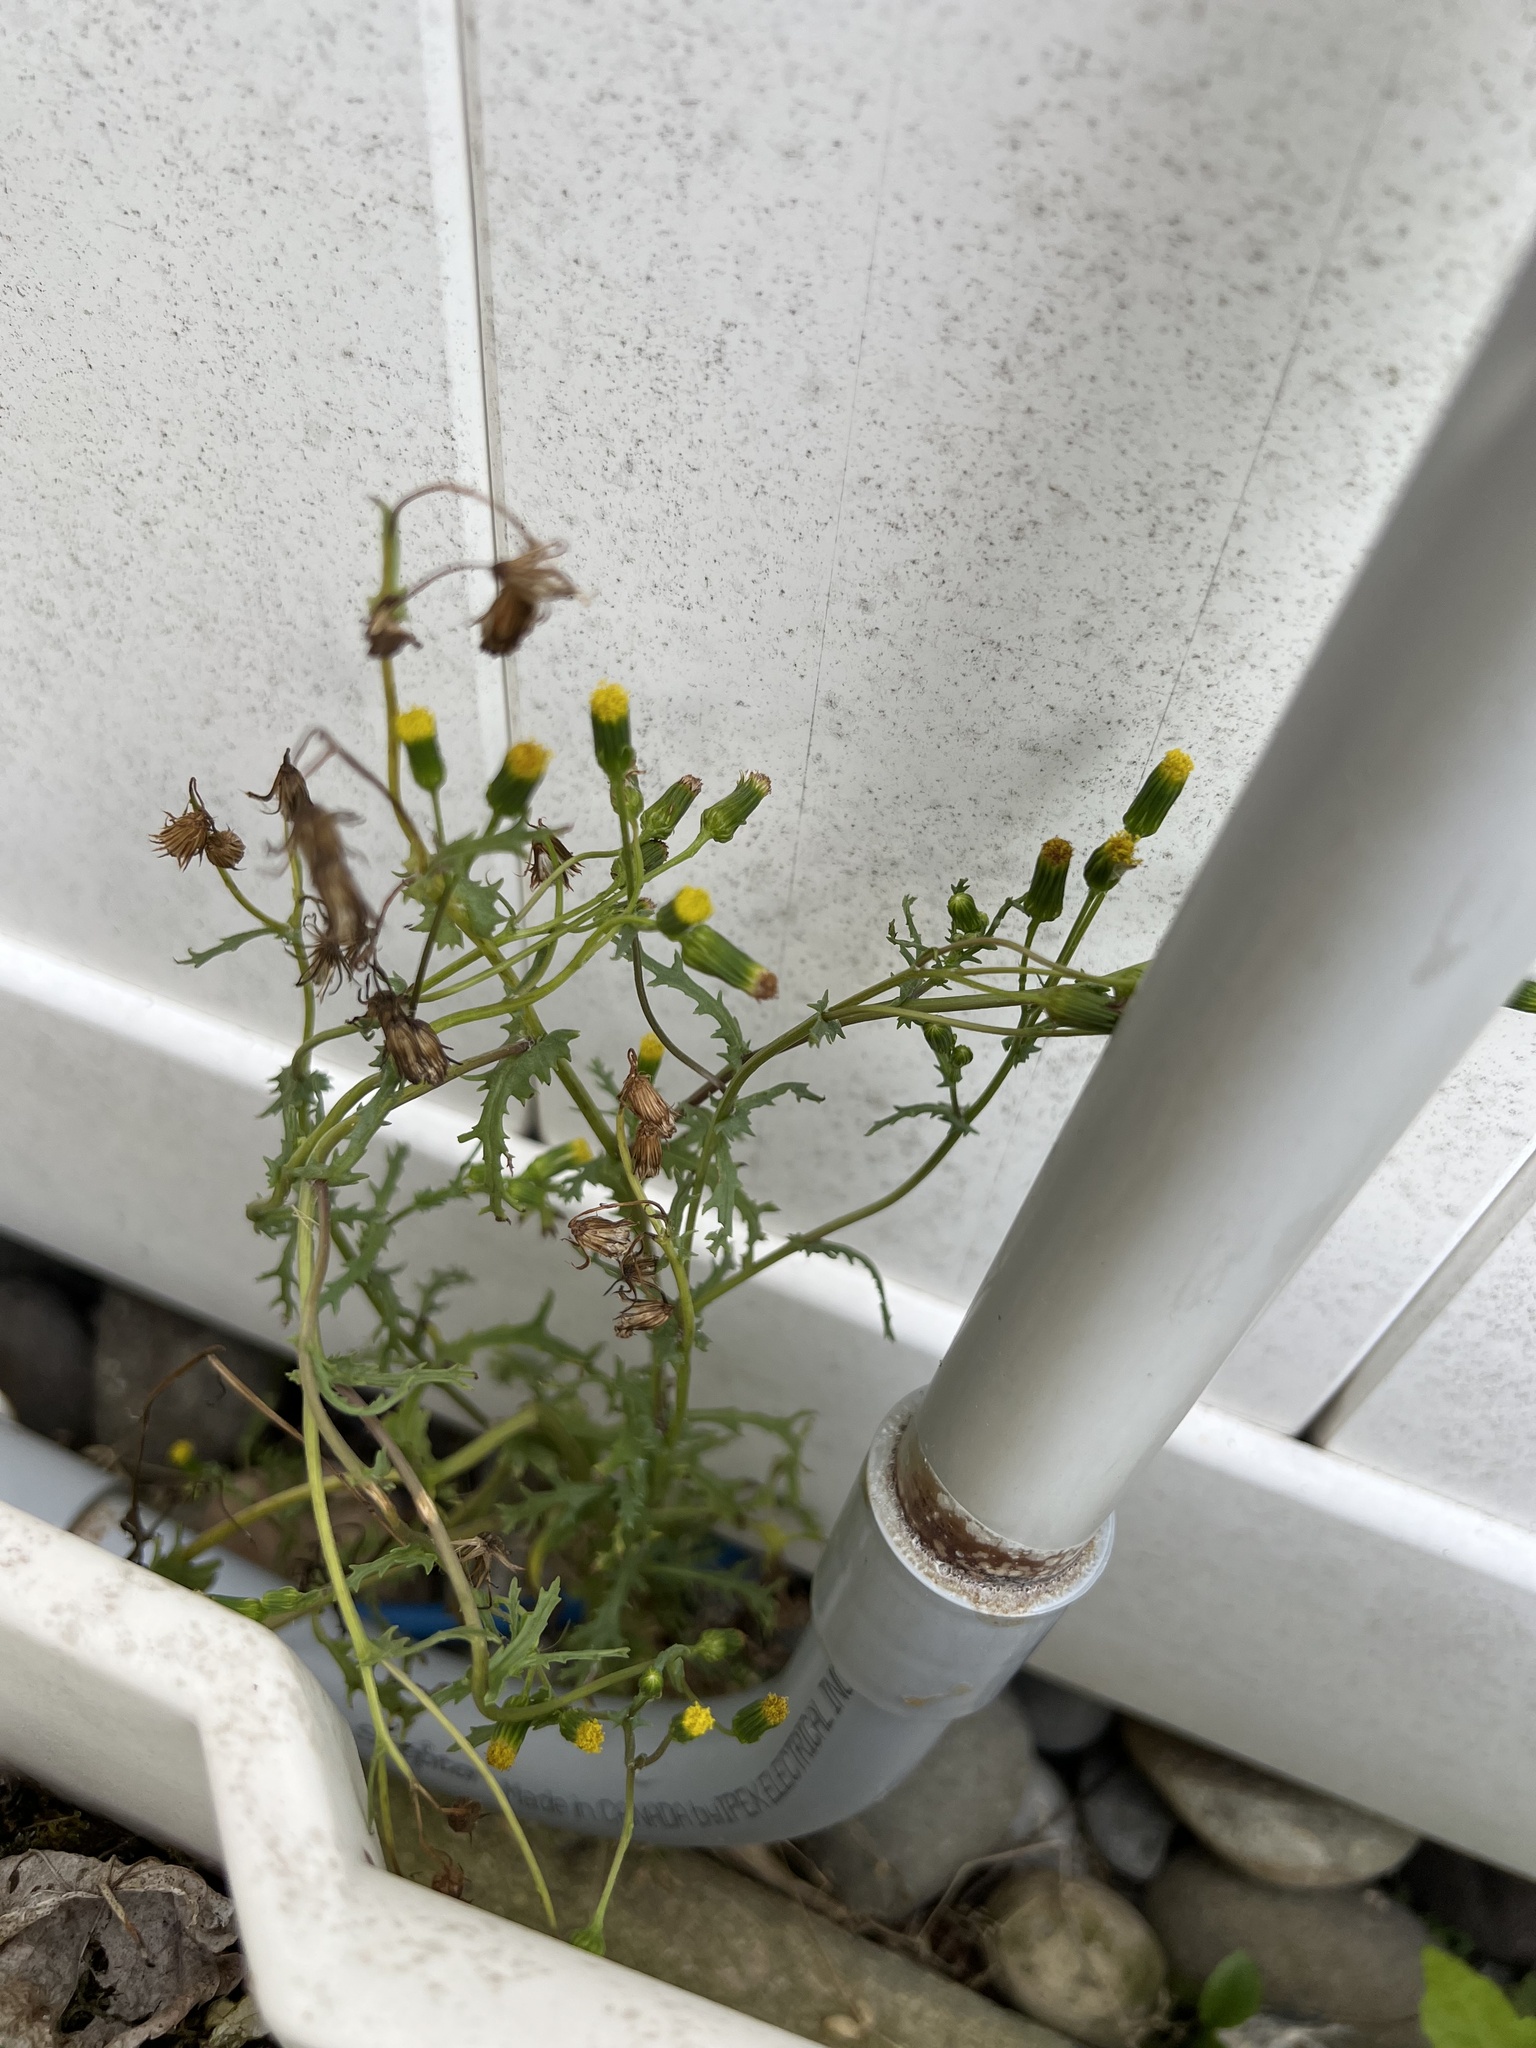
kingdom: Plantae
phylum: Tracheophyta
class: Magnoliopsida
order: Asterales
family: Asteraceae
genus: Senecio
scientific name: Senecio vulgaris
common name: Old-man-in-the-spring
